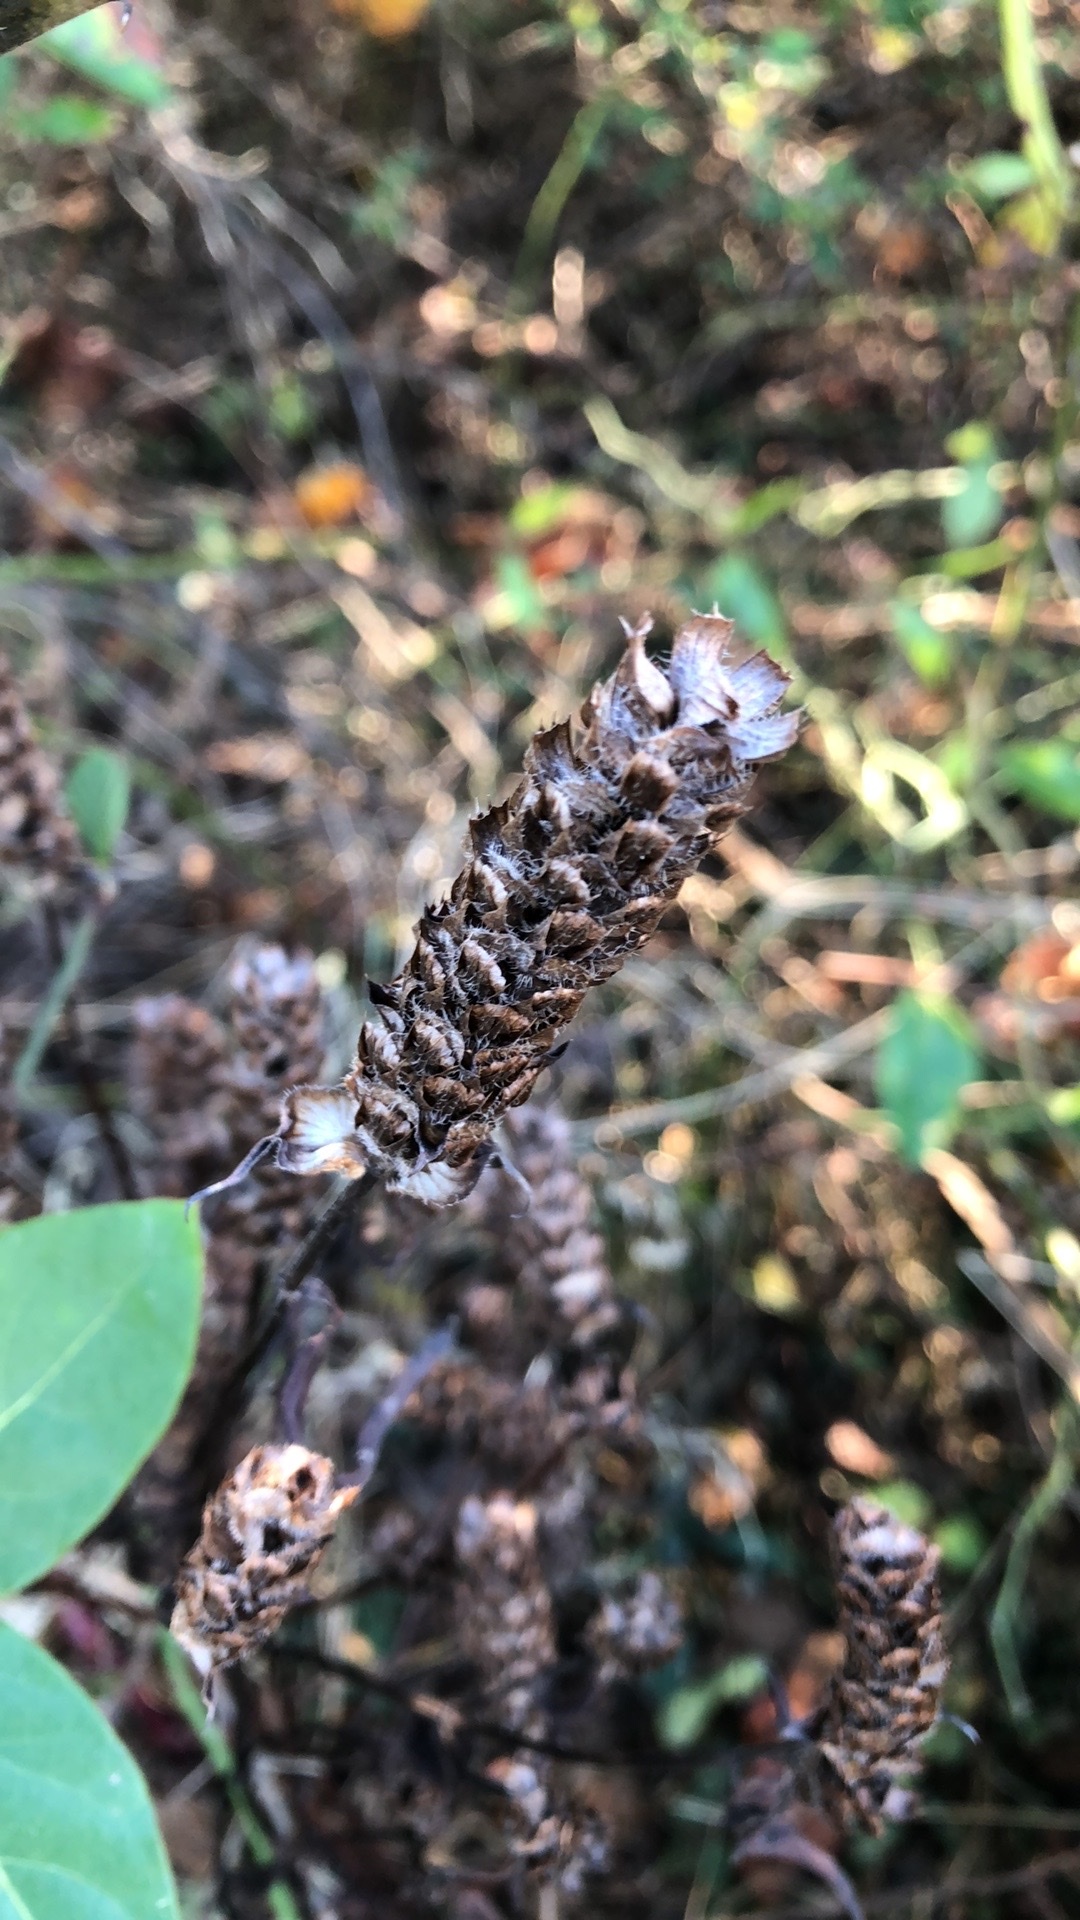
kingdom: Plantae
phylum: Tracheophyta
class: Magnoliopsida
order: Lamiales
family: Lamiaceae
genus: Prunella
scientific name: Prunella vulgaris
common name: Heal-all
